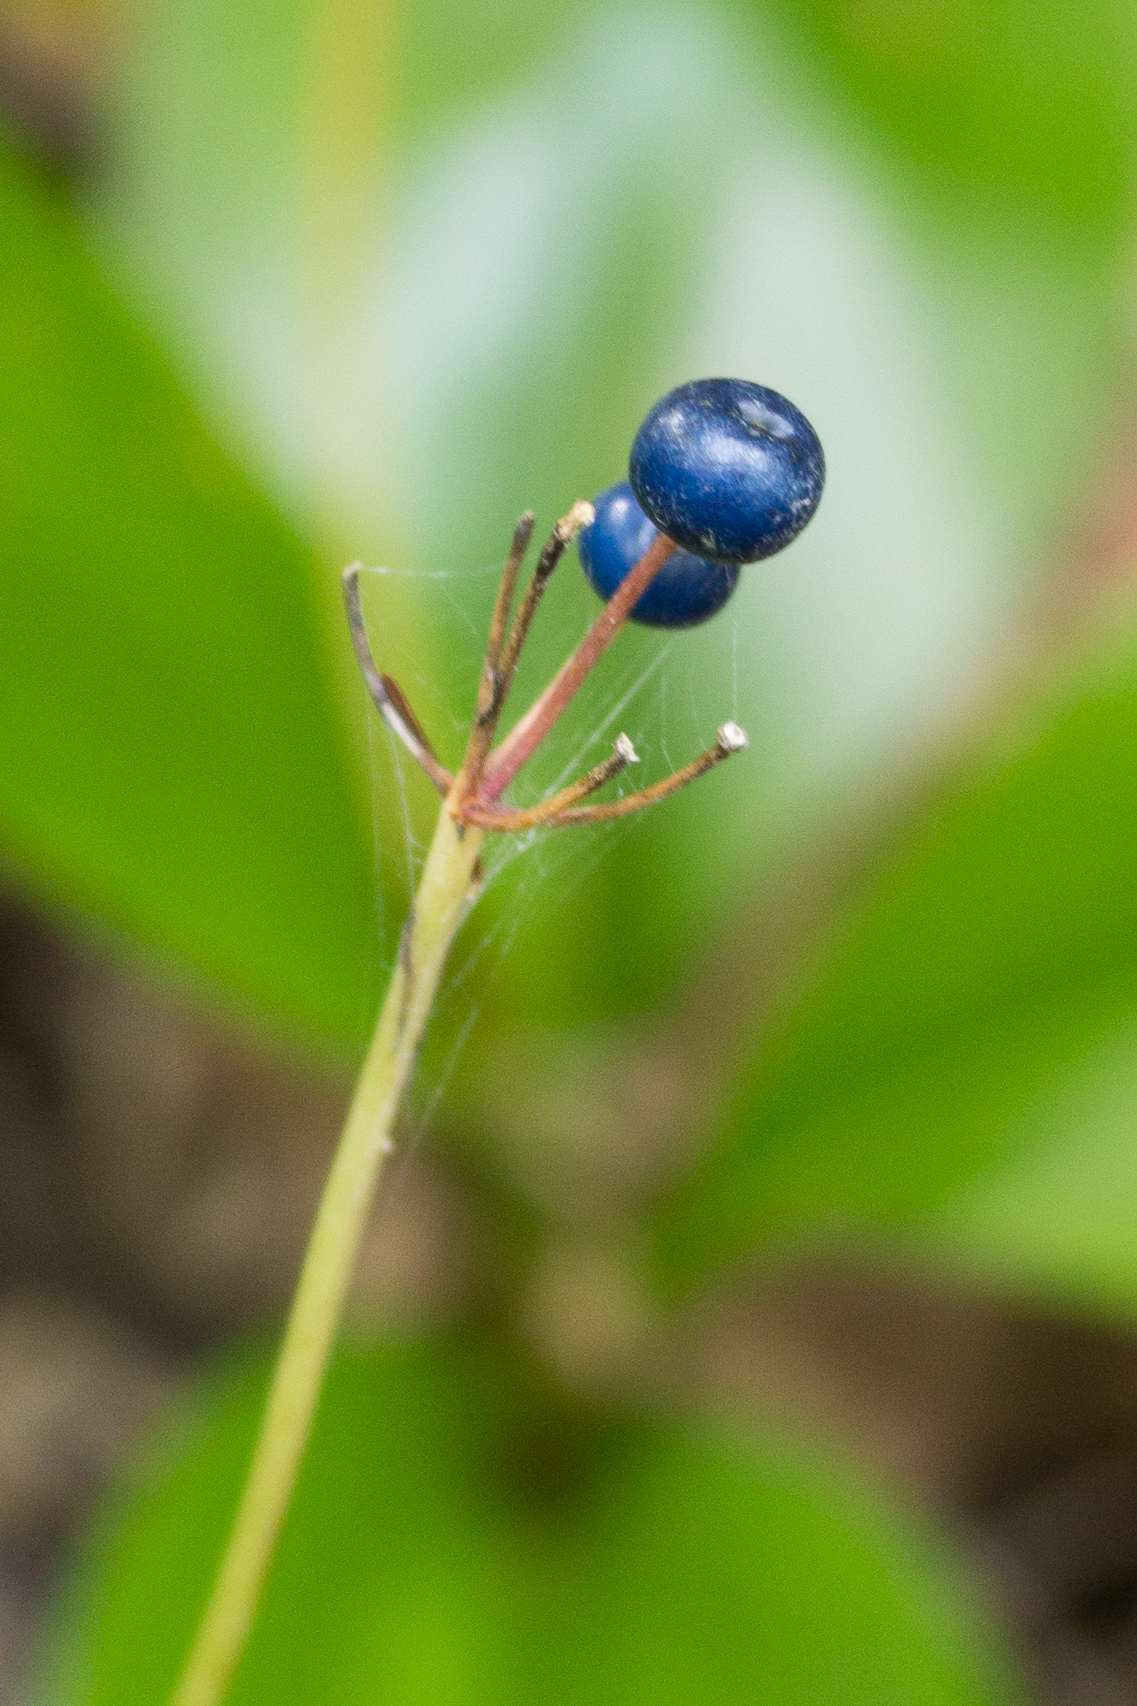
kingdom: Plantae
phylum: Tracheophyta
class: Liliopsida
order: Liliales
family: Liliaceae
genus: Clintonia
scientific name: Clintonia borealis
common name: Yellow clintonia
